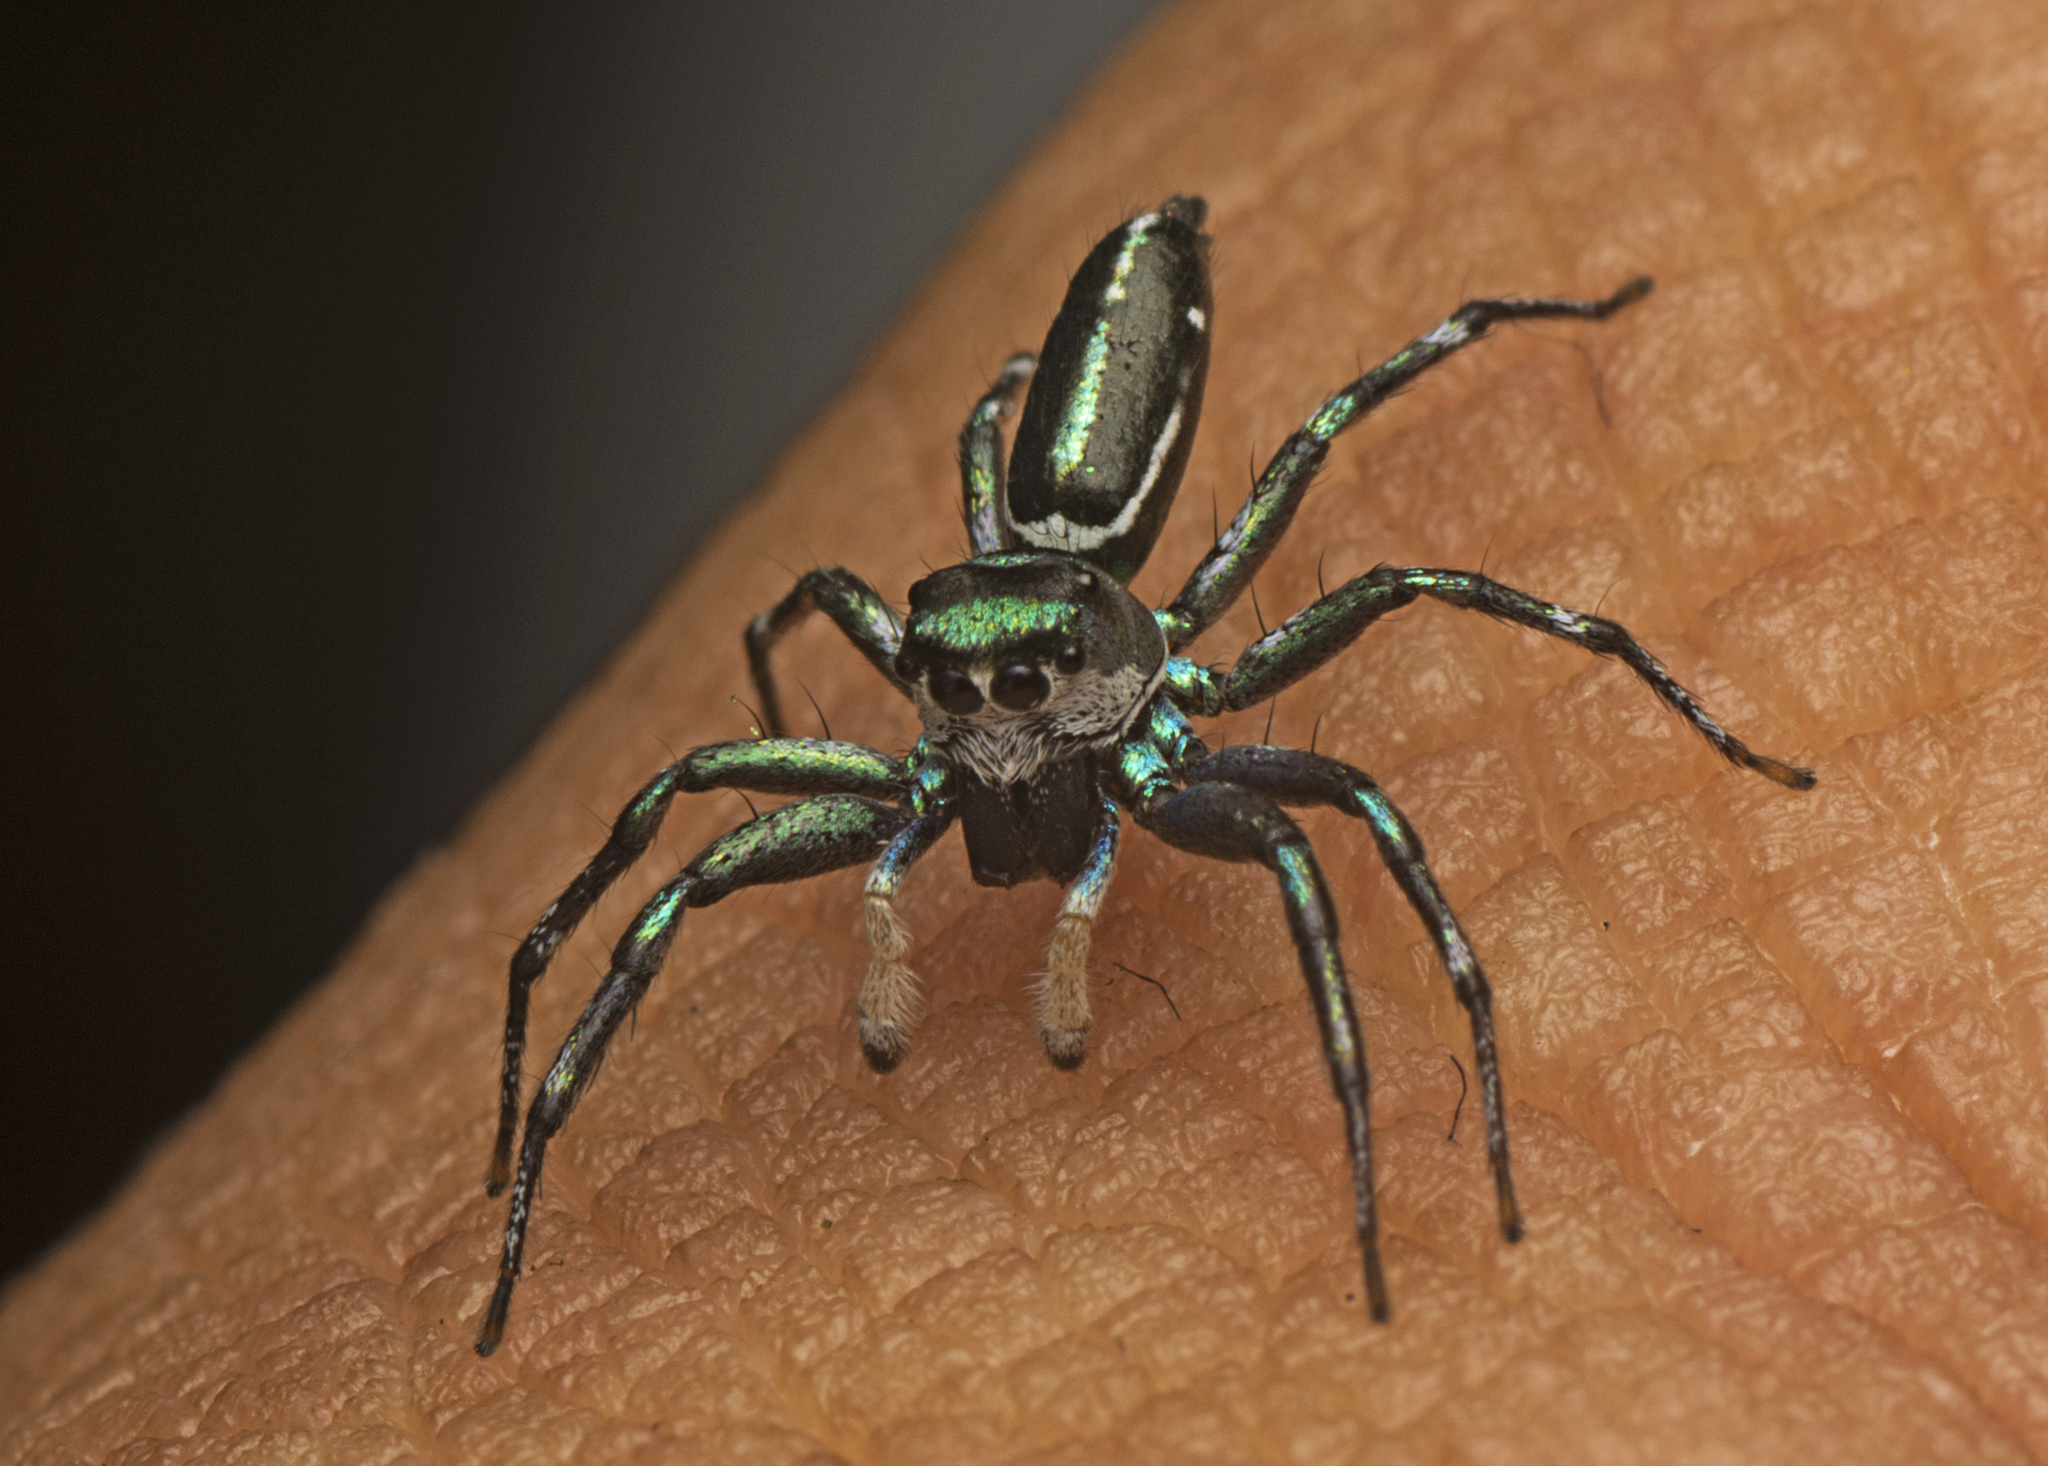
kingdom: Animalia
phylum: Arthropoda
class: Arachnida
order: Araneae
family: Salticidae
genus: Cosmophasis
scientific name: Cosmophasis thalassina
